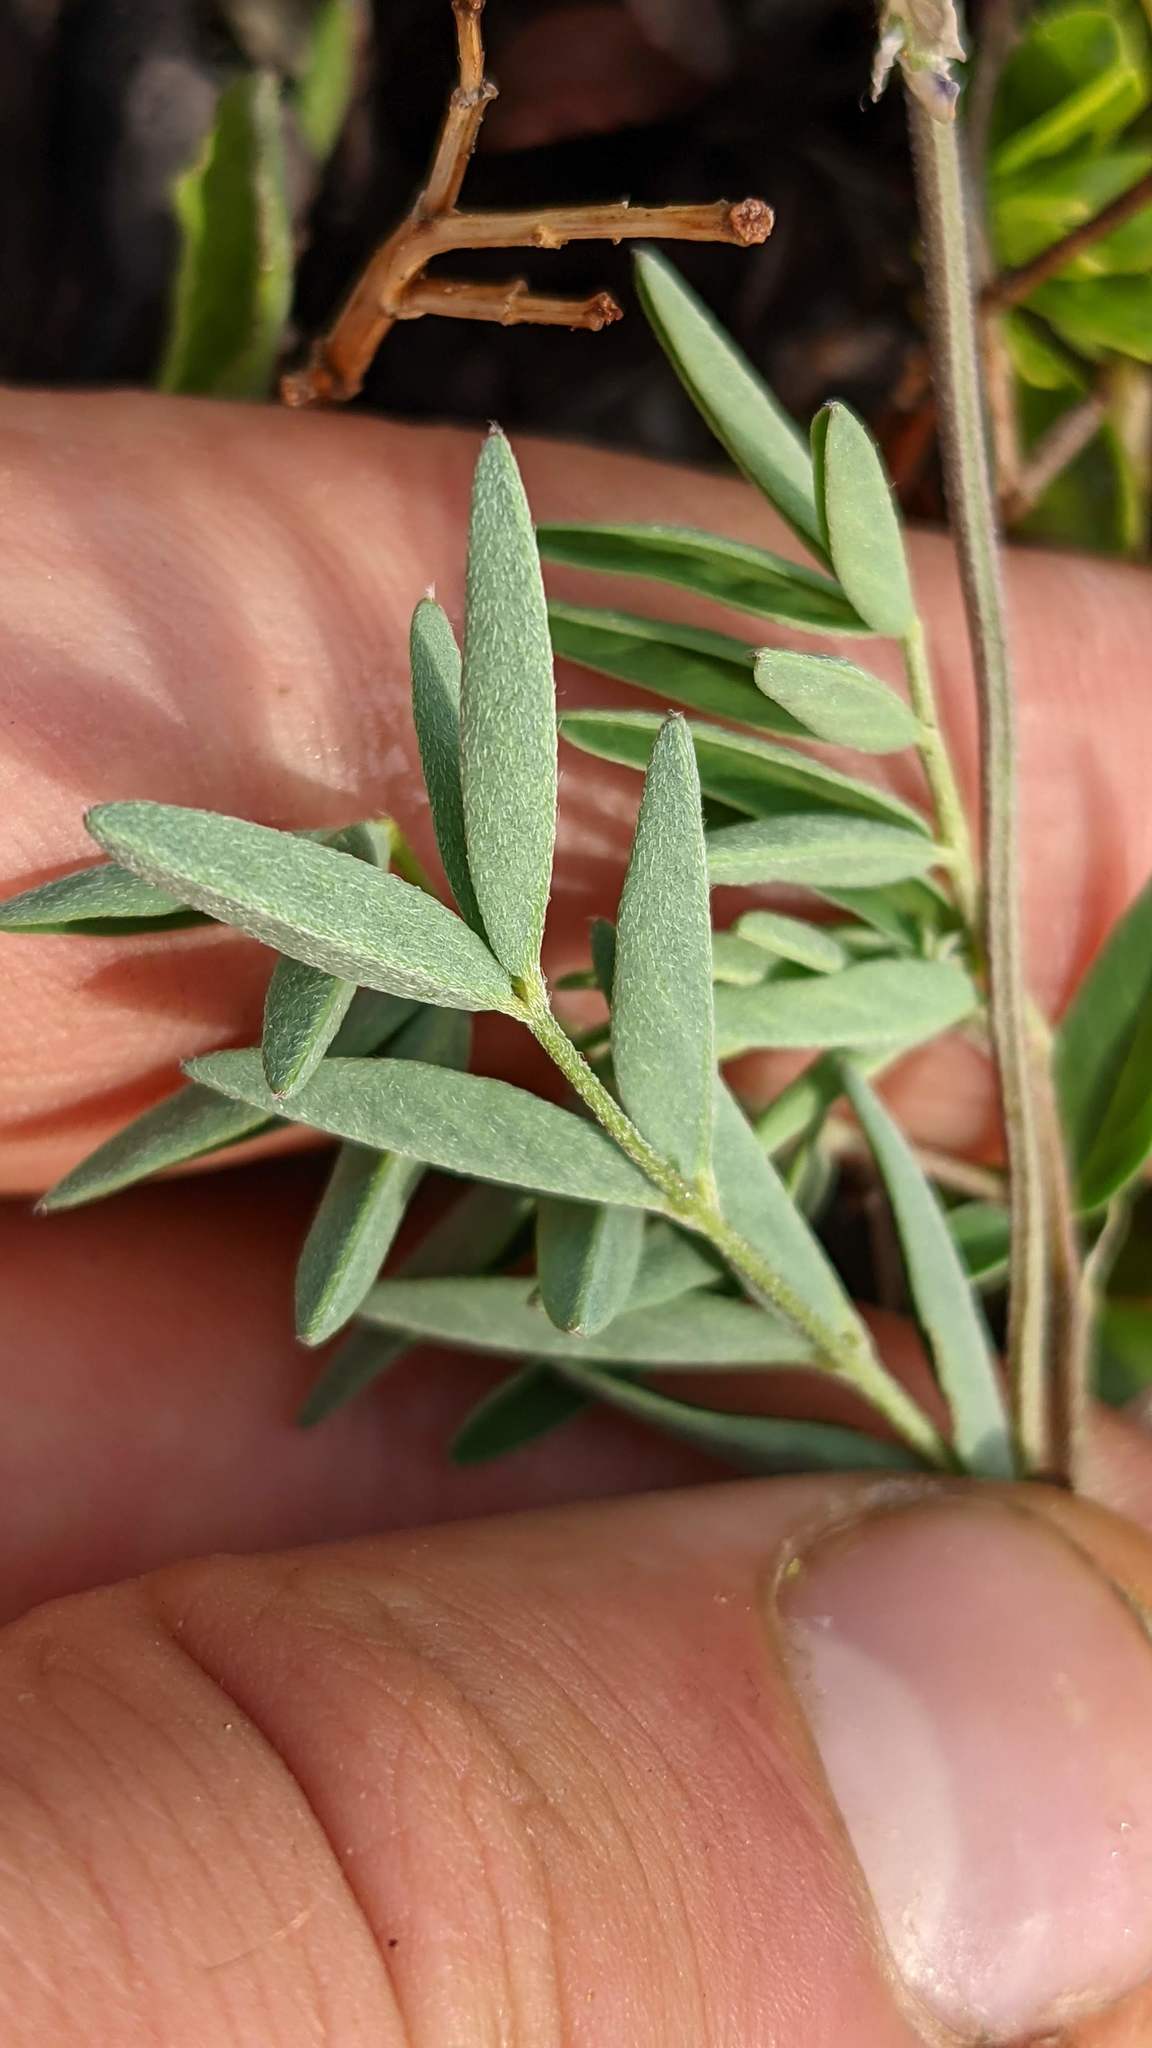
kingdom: Plantae
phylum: Tracheophyta
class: Magnoliopsida
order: Fabales
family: Fabaceae
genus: Astragalus
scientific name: Astragalus eucosmus
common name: Elegant milk-vetch
